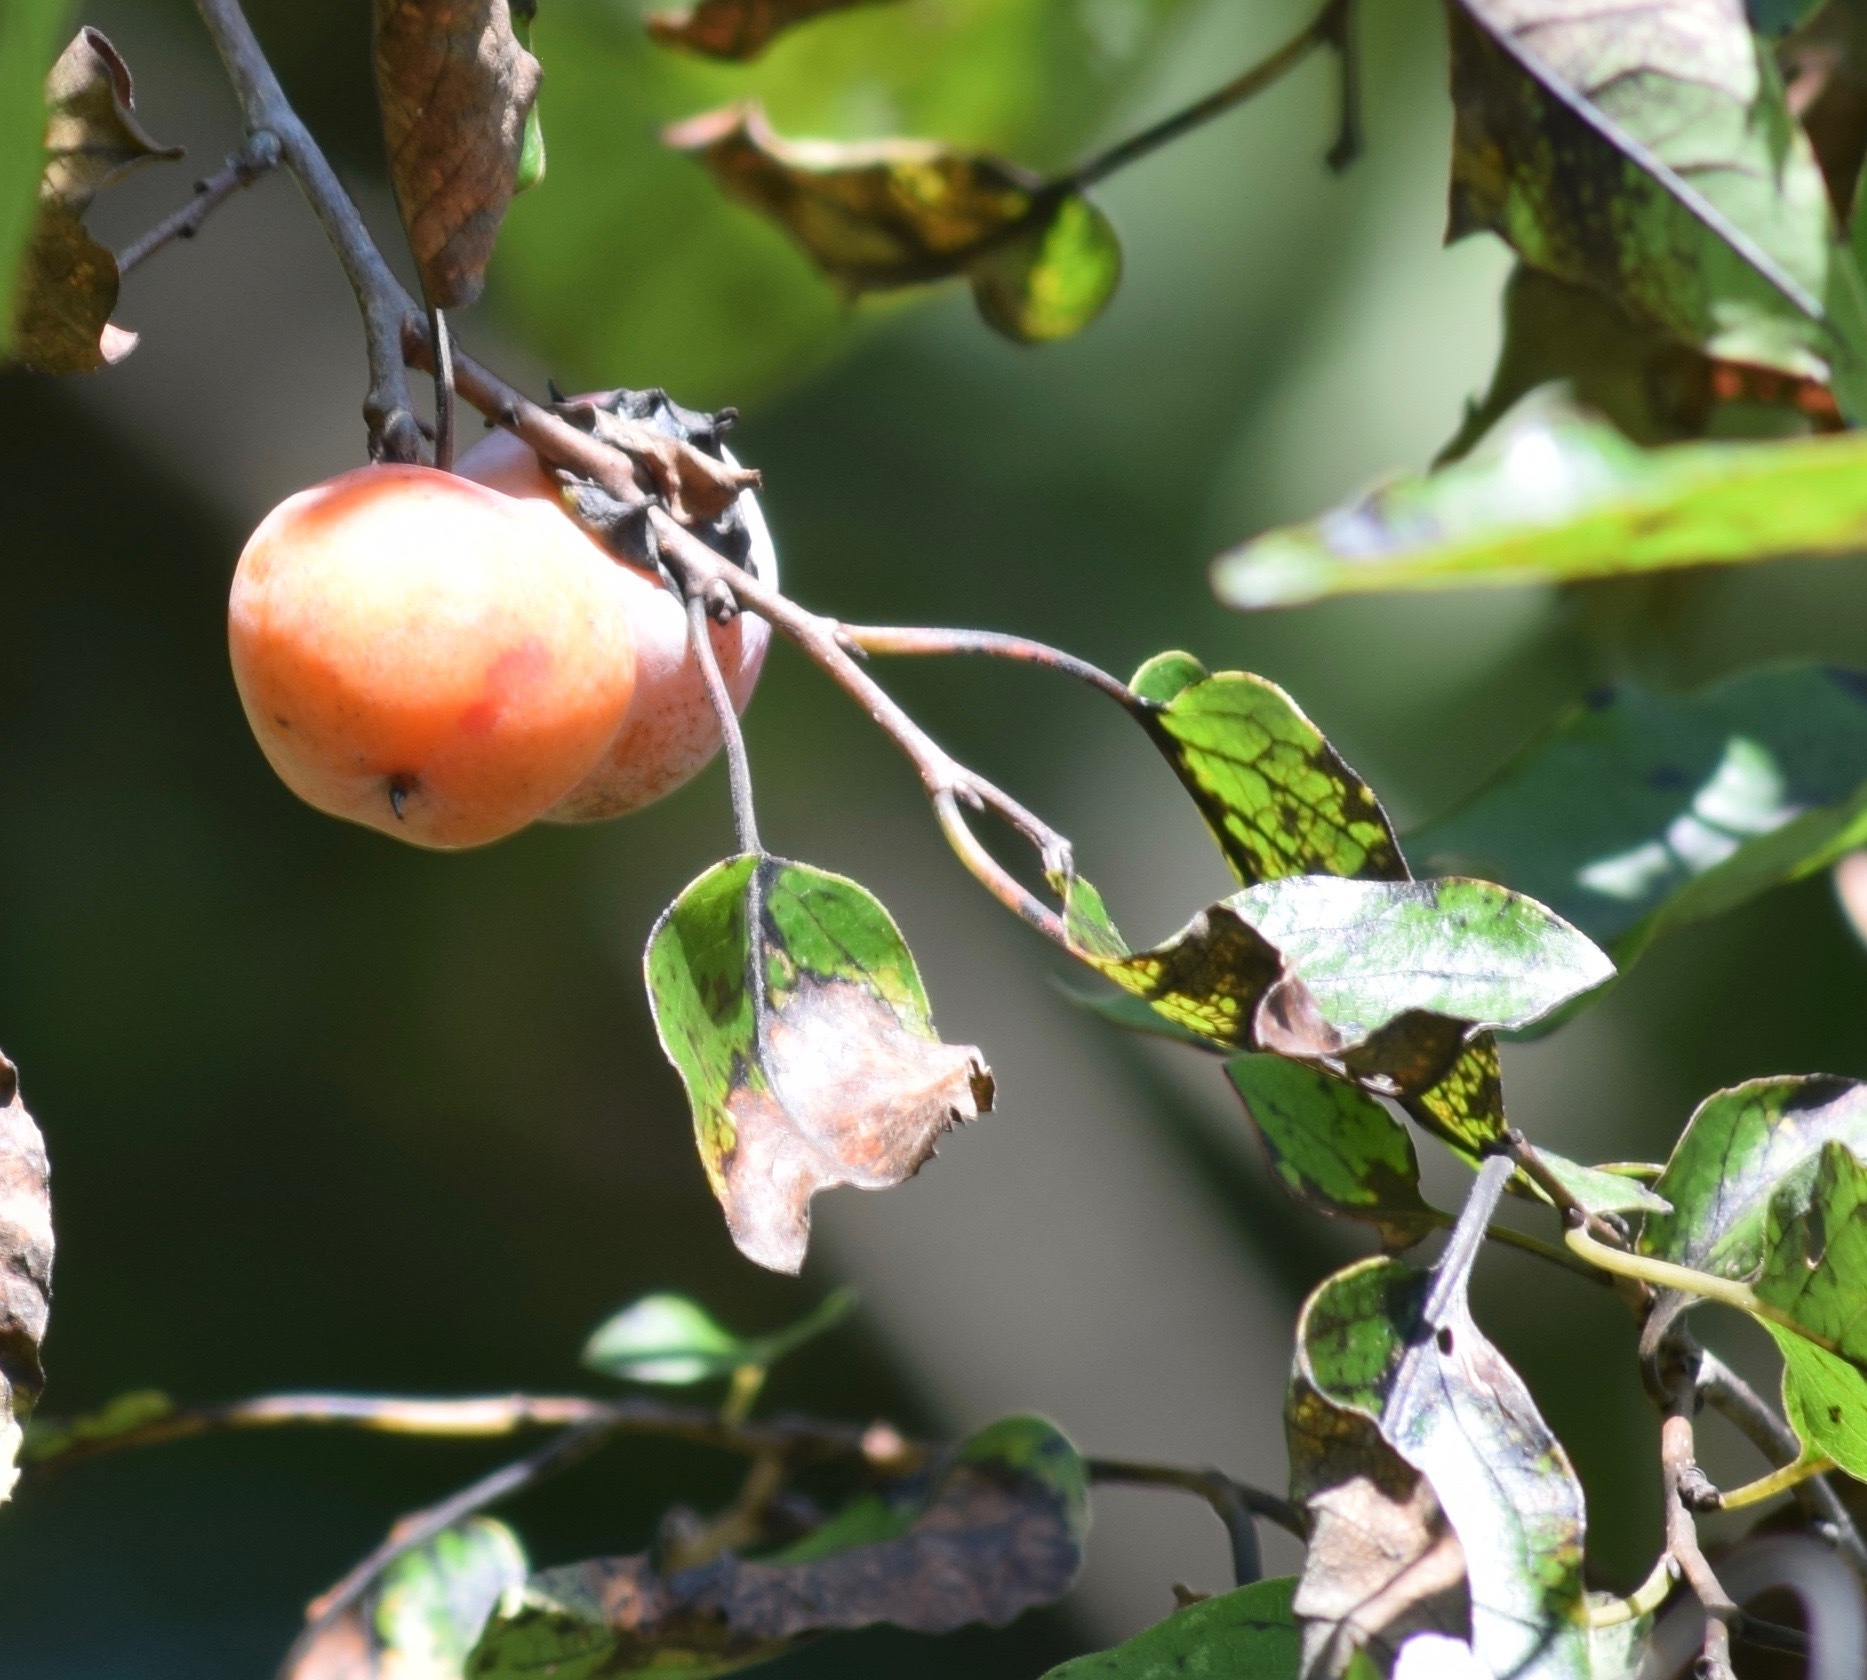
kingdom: Plantae
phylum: Tracheophyta
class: Magnoliopsida
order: Ericales
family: Ebenaceae
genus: Diospyros
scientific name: Diospyros virginiana
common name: Persimmon
